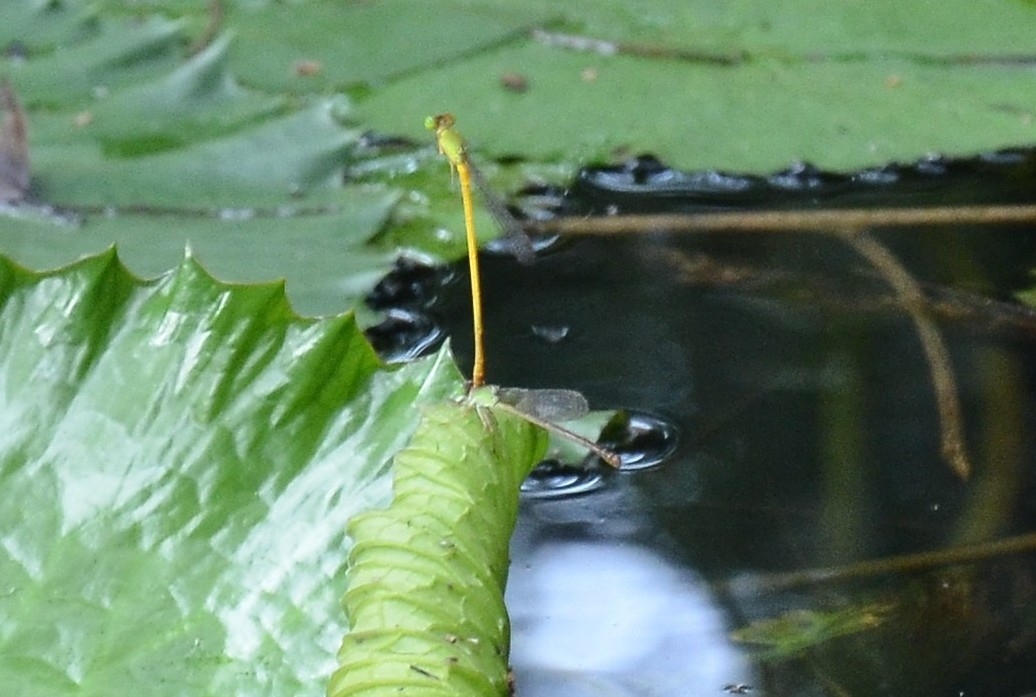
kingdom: Animalia
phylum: Arthropoda
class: Insecta
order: Odonata
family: Coenagrionidae
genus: Ceriagrion
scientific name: Ceriagrion coromandelianum
